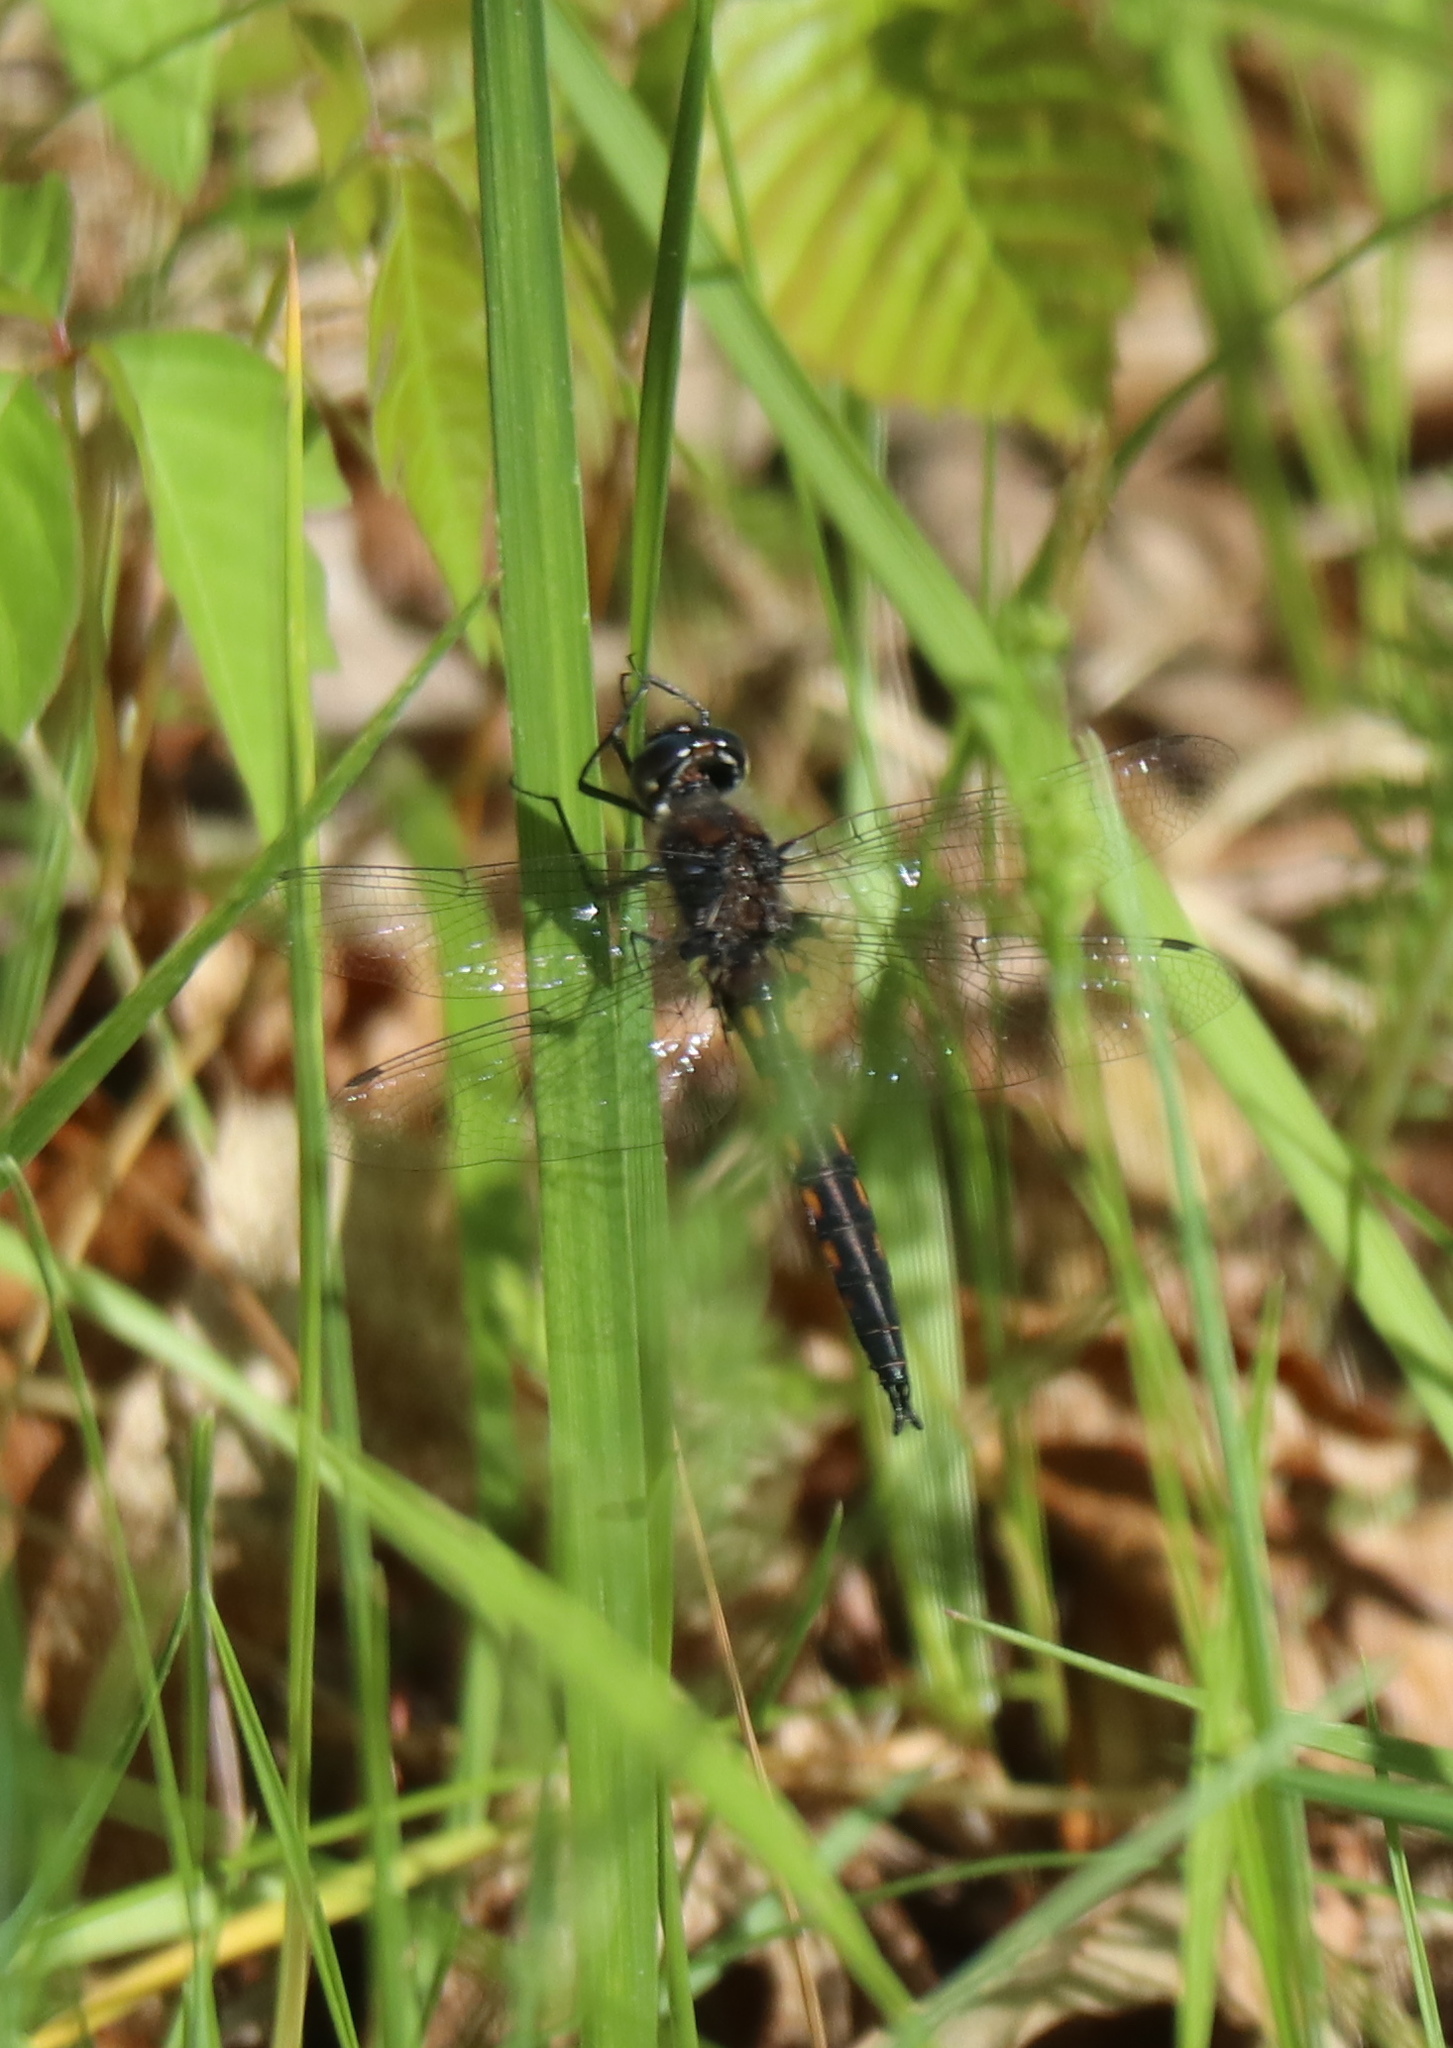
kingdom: Animalia
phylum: Arthropoda
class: Insecta
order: Odonata
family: Corduliidae
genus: Epitheca
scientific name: Epitheca cynosura
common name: Common baskettail
